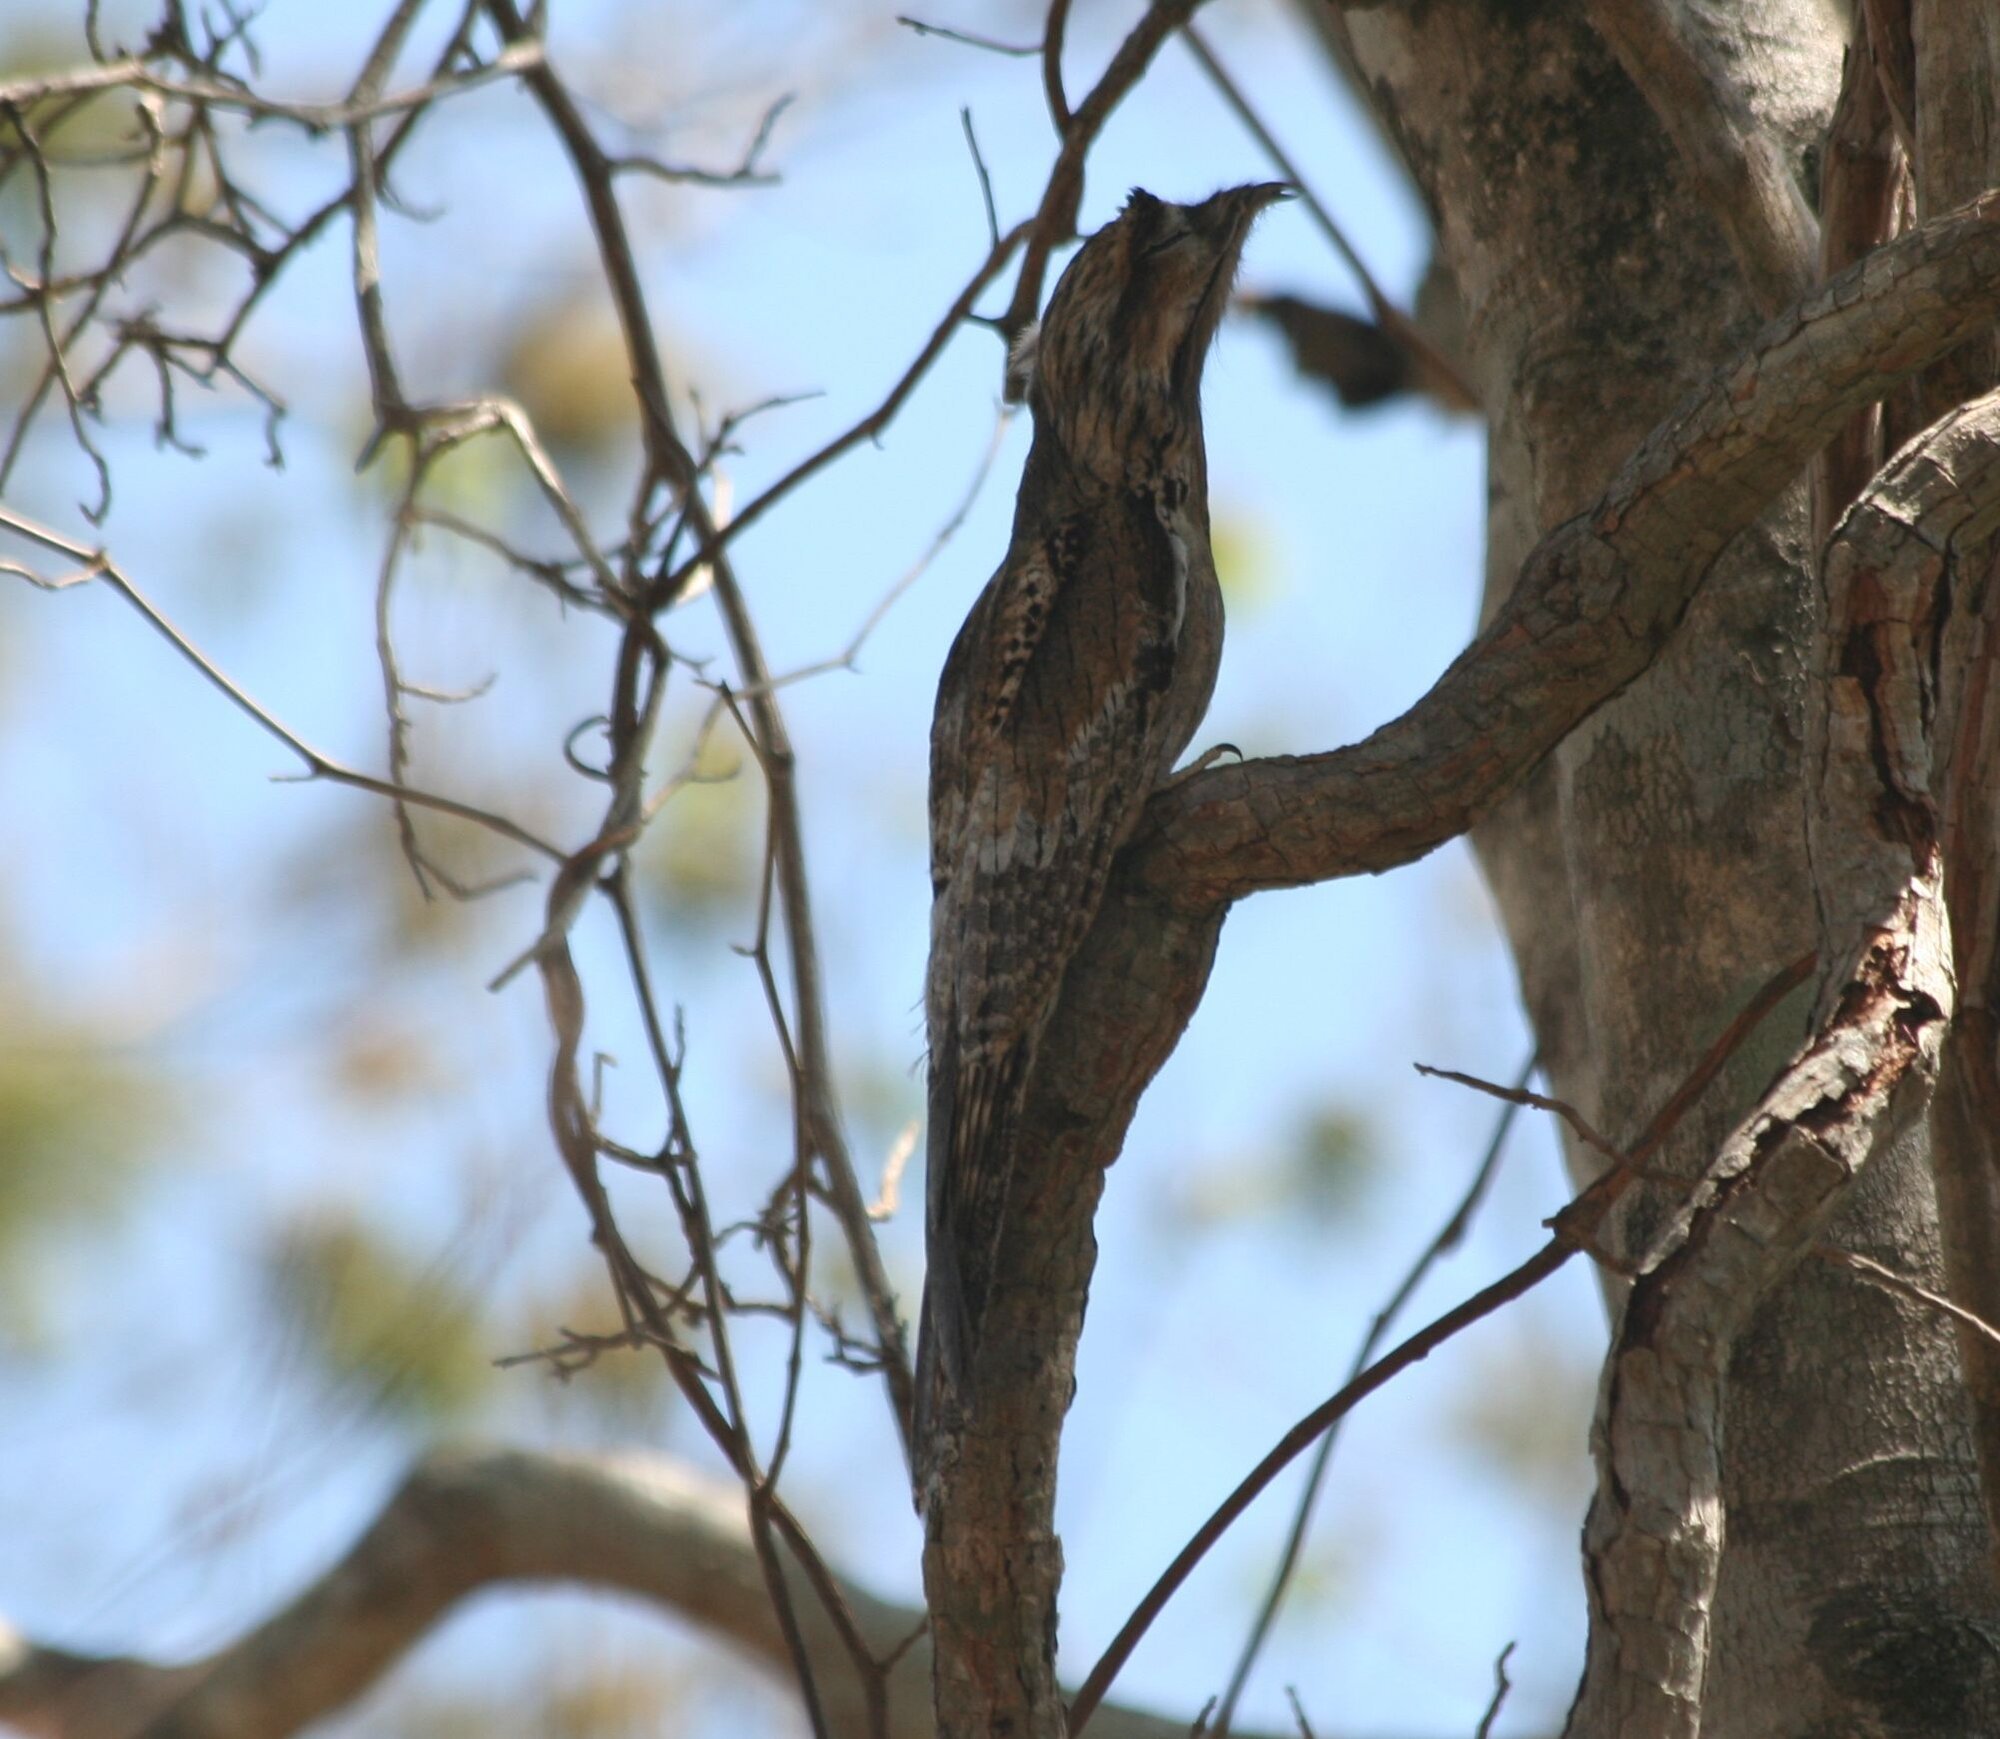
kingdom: Animalia
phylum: Chordata
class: Aves
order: Nyctibiiformes
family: Nyctibiidae
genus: Nyctibius
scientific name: Nyctibius jamaicensis
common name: Northern potoo
